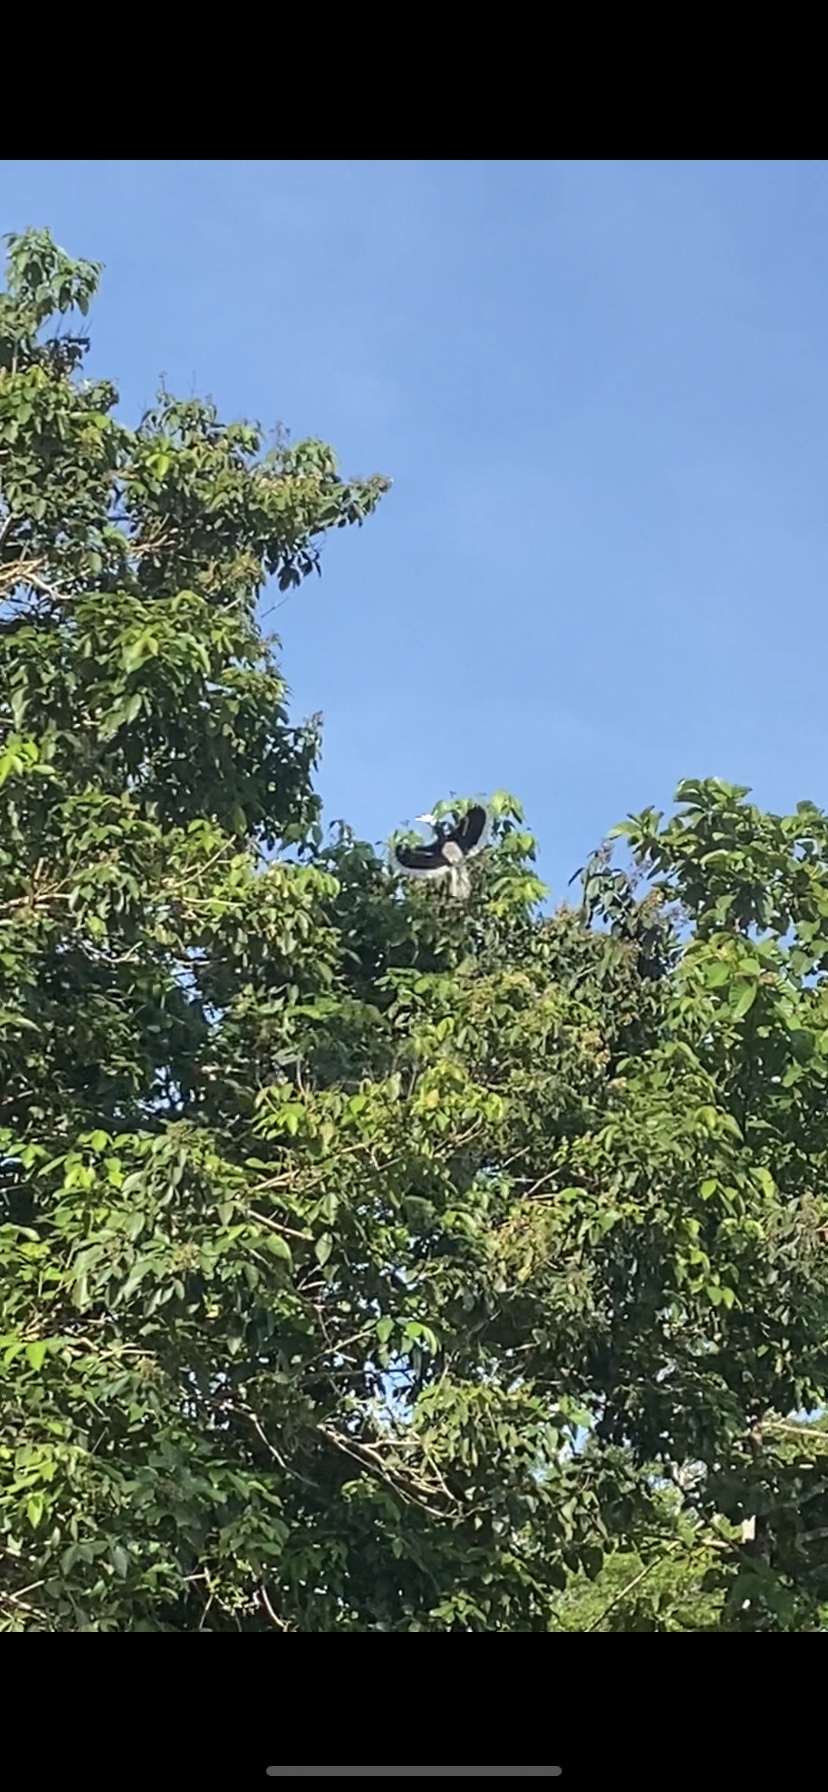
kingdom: Animalia
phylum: Chordata
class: Aves
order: Bucerotiformes
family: Bucerotidae
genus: Anthracoceros
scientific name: Anthracoceros albirostris
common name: Oriental pied-hornbill
